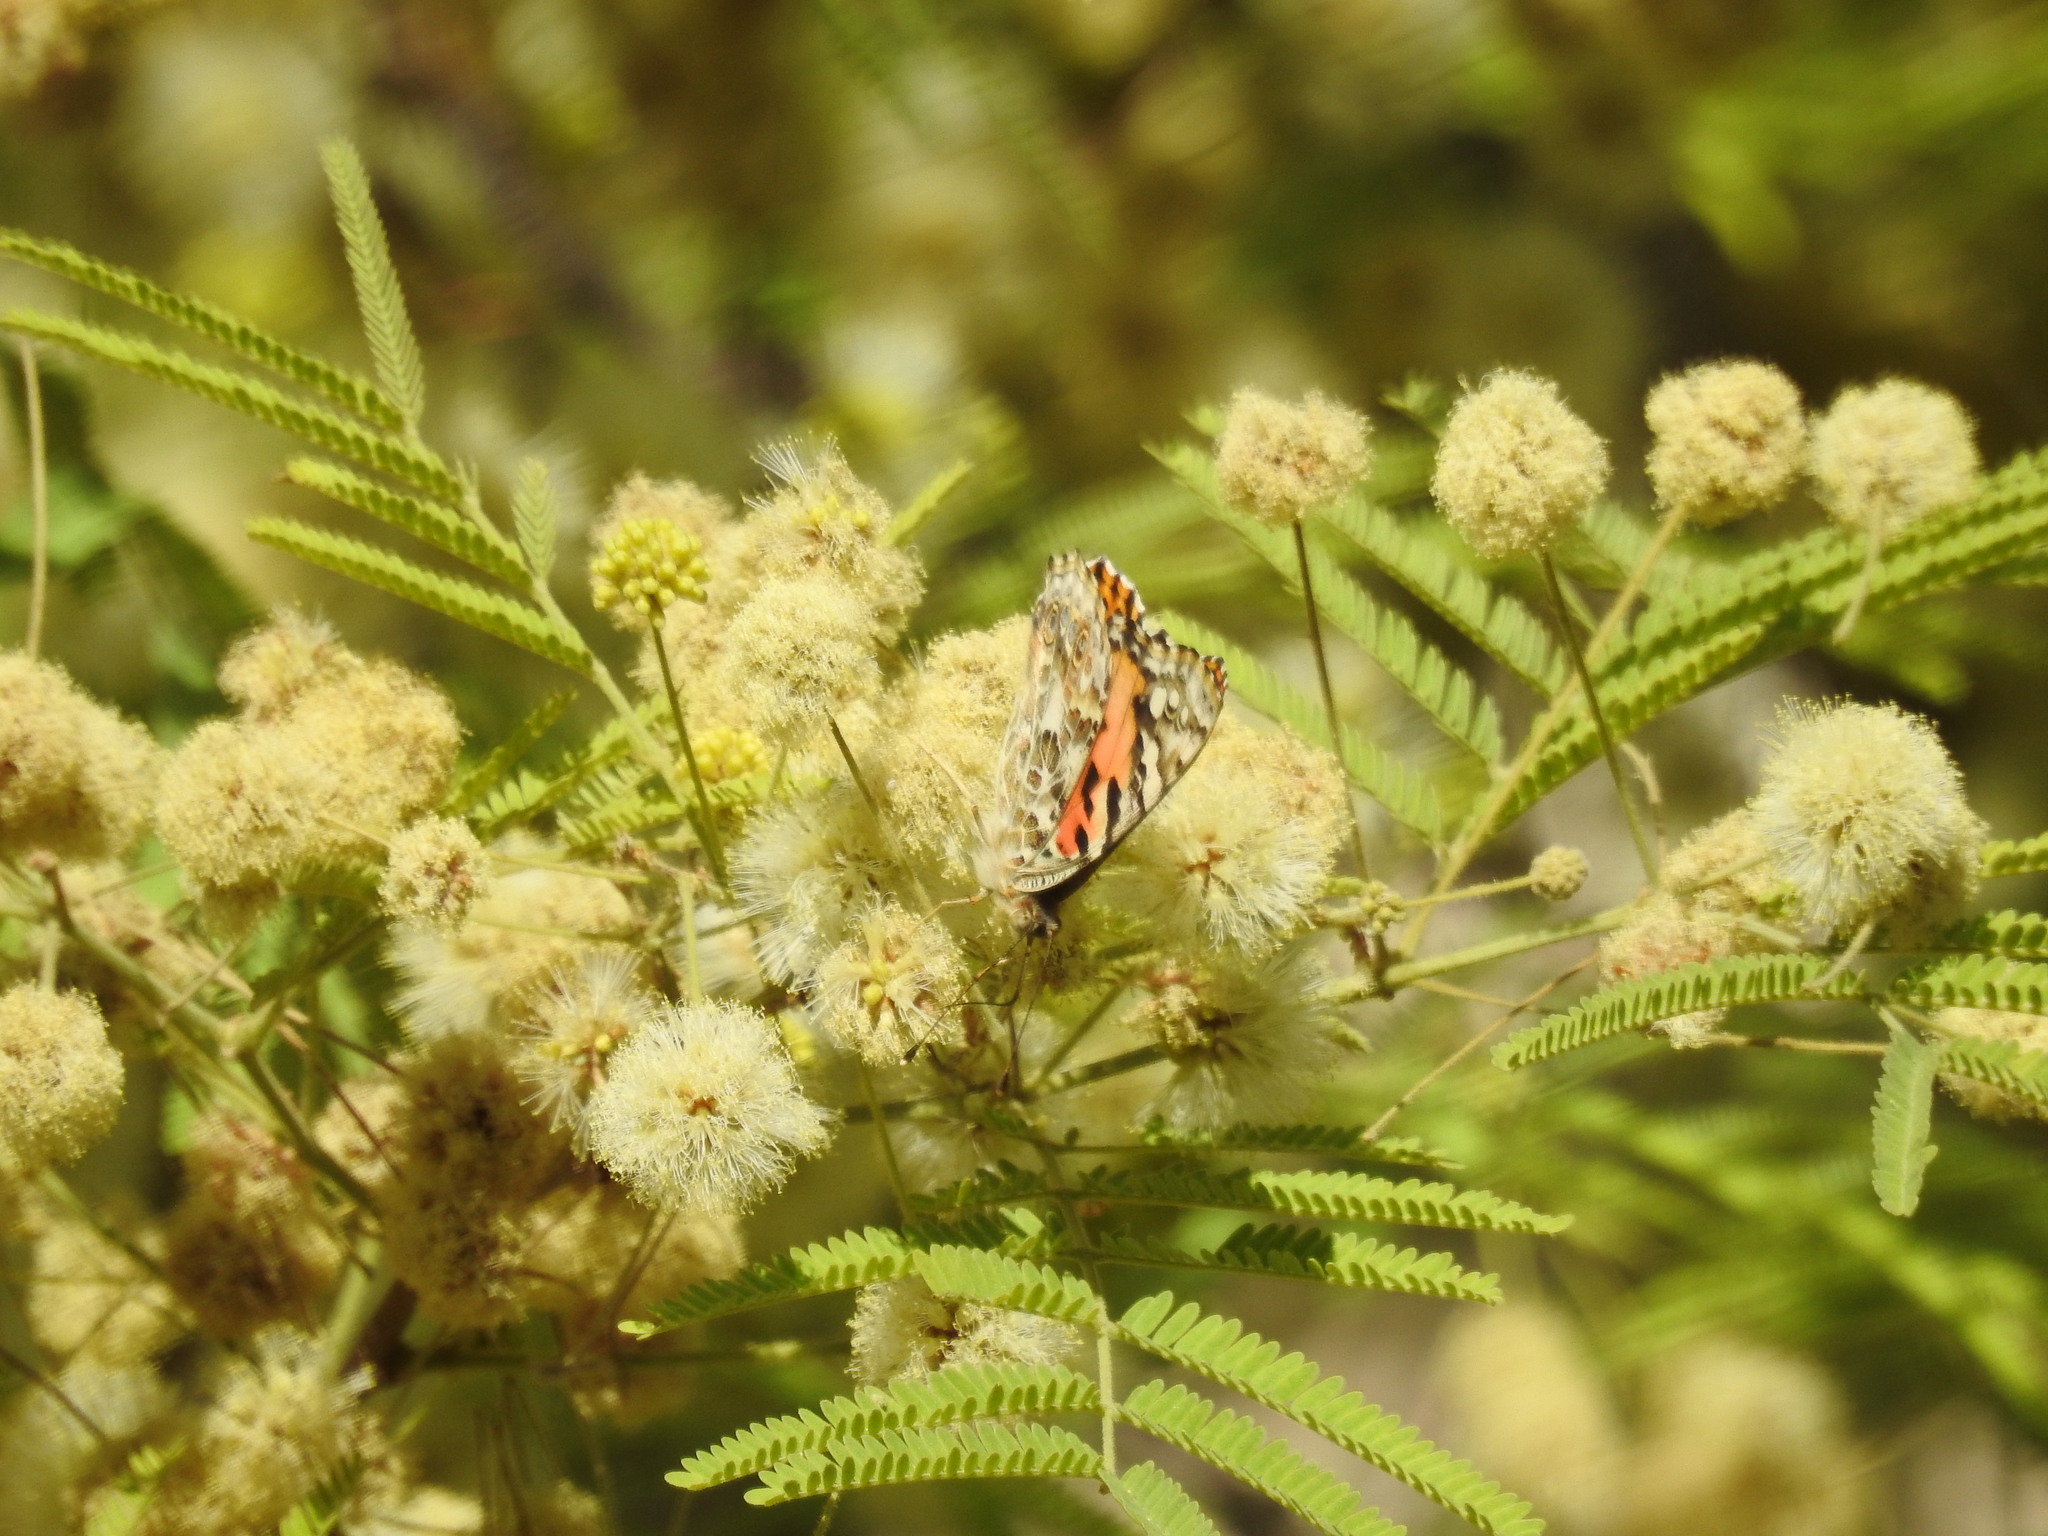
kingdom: Animalia
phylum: Arthropoda
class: Insecta
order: Lepidoptera
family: Nymphalidae
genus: Vanessa
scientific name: Vanessa cardui
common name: Painted lady
